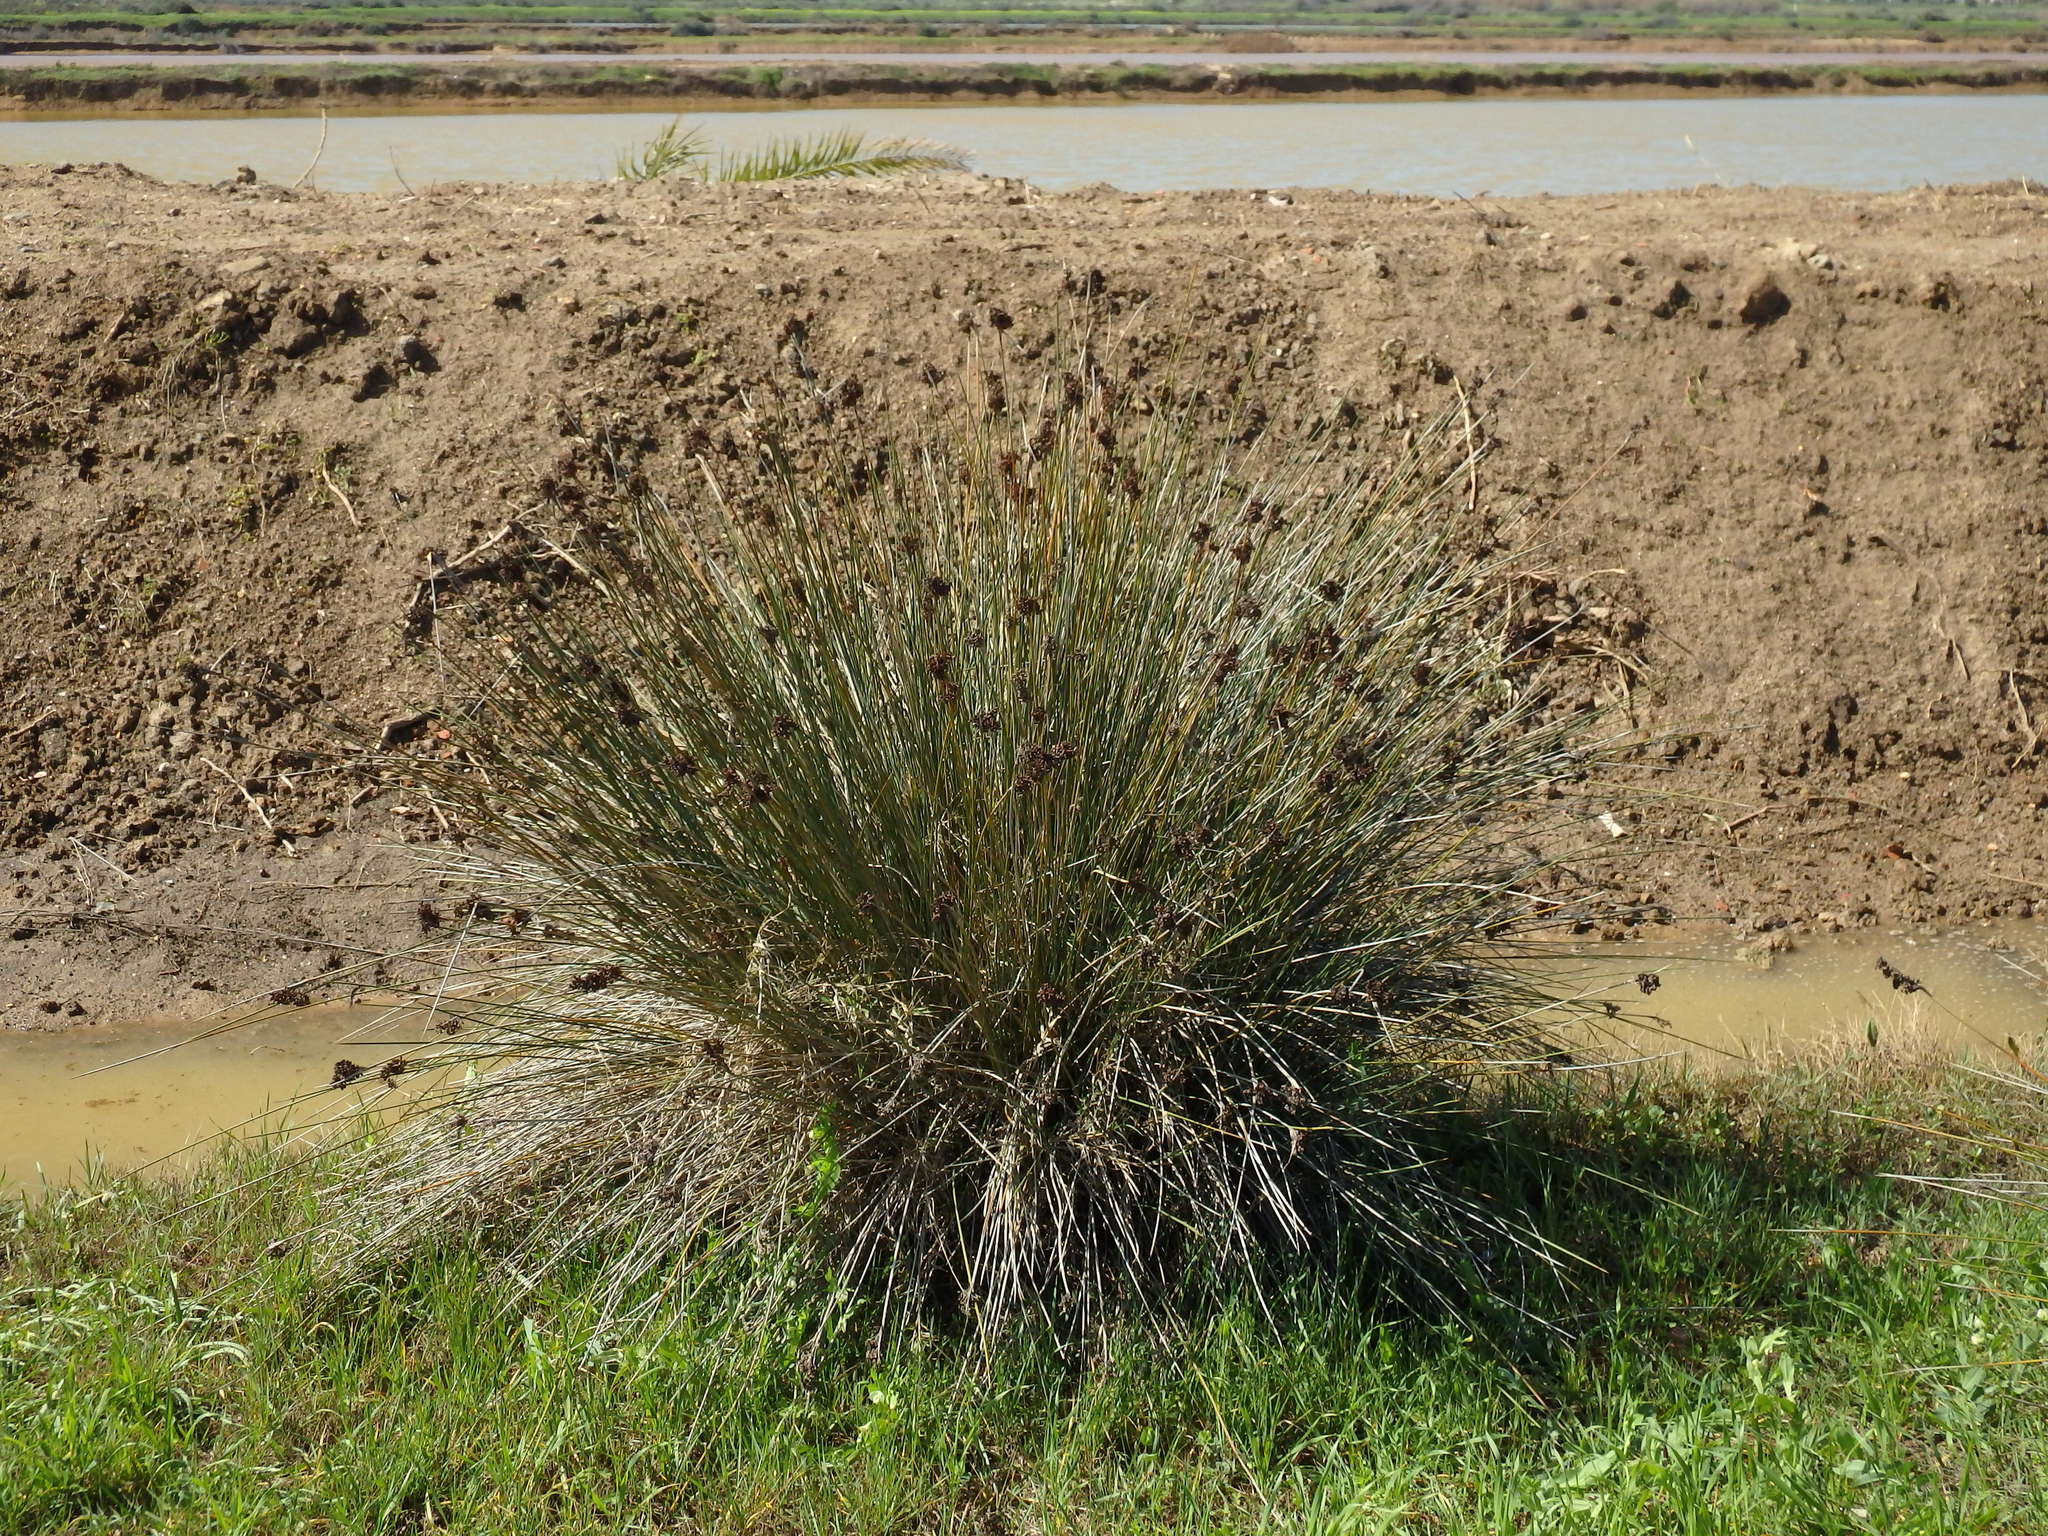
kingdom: Plantae
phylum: Tracheophyta
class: Liliopsida
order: Poales
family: Juncaceae
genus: Juncus
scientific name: Juncus acutus
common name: Sharp rush
